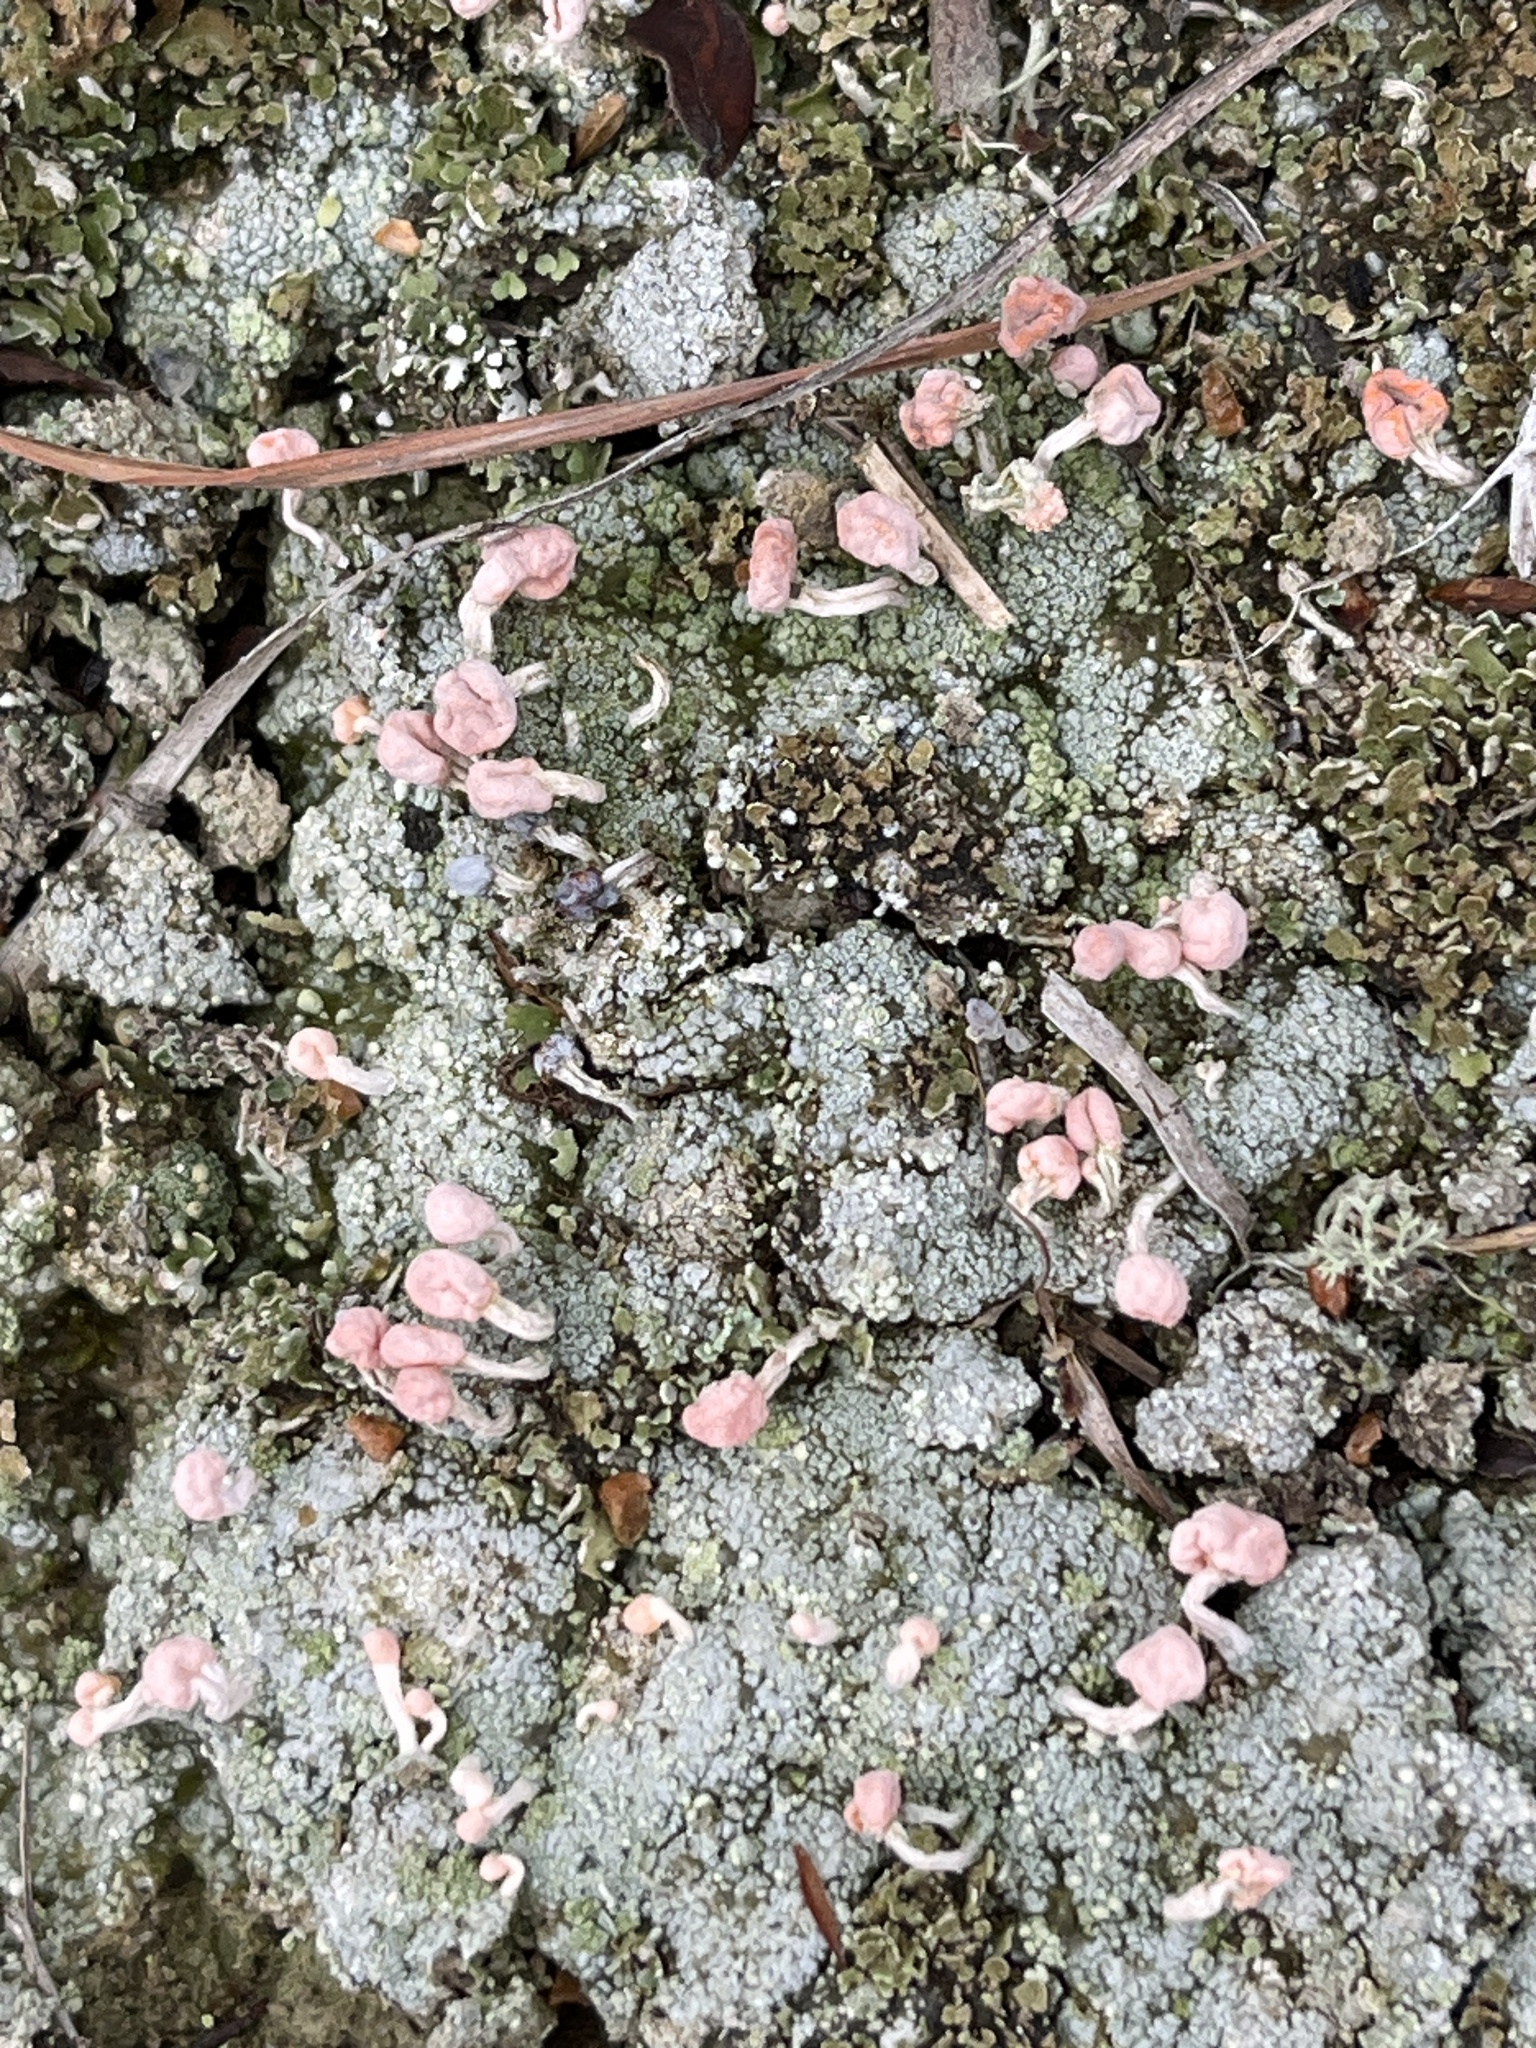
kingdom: Fungi
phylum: Ascomycota
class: Lecanoromycetes
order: Pertusariales
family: Icmadophilaceae
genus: Dibaeis
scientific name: Dibaeis baeomyces
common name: Pink earth lichen
